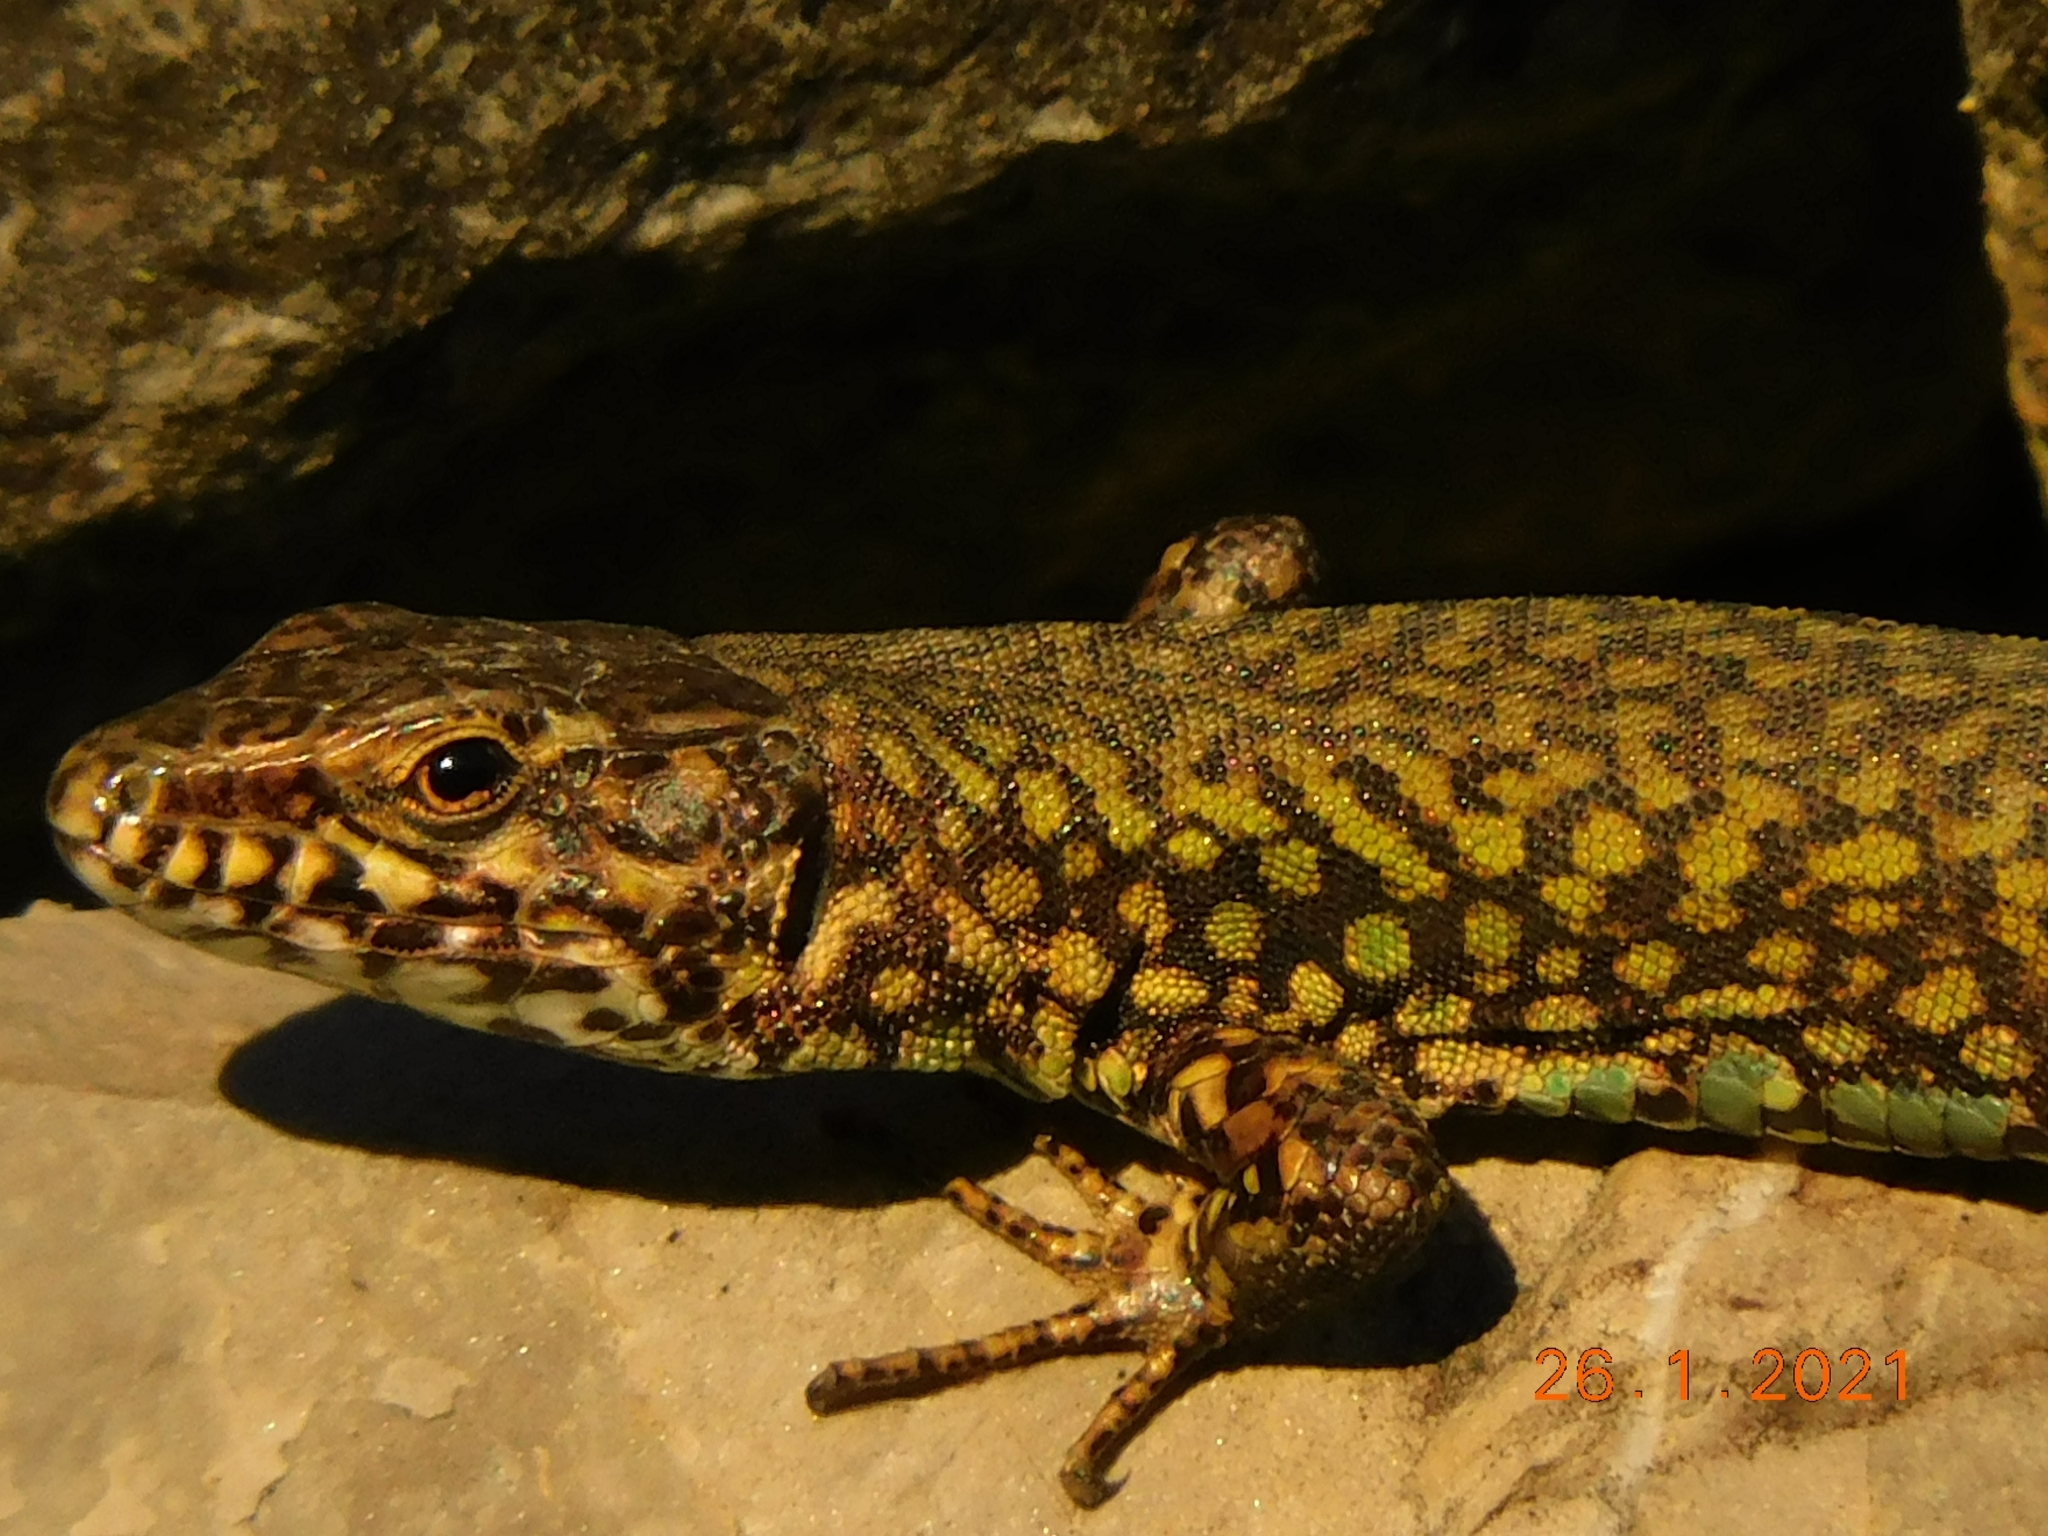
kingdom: Animalia
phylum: Chordata
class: Squamata
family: Lacertidae
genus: Podarcis
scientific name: Podarcis muralis
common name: Common wall lizard
